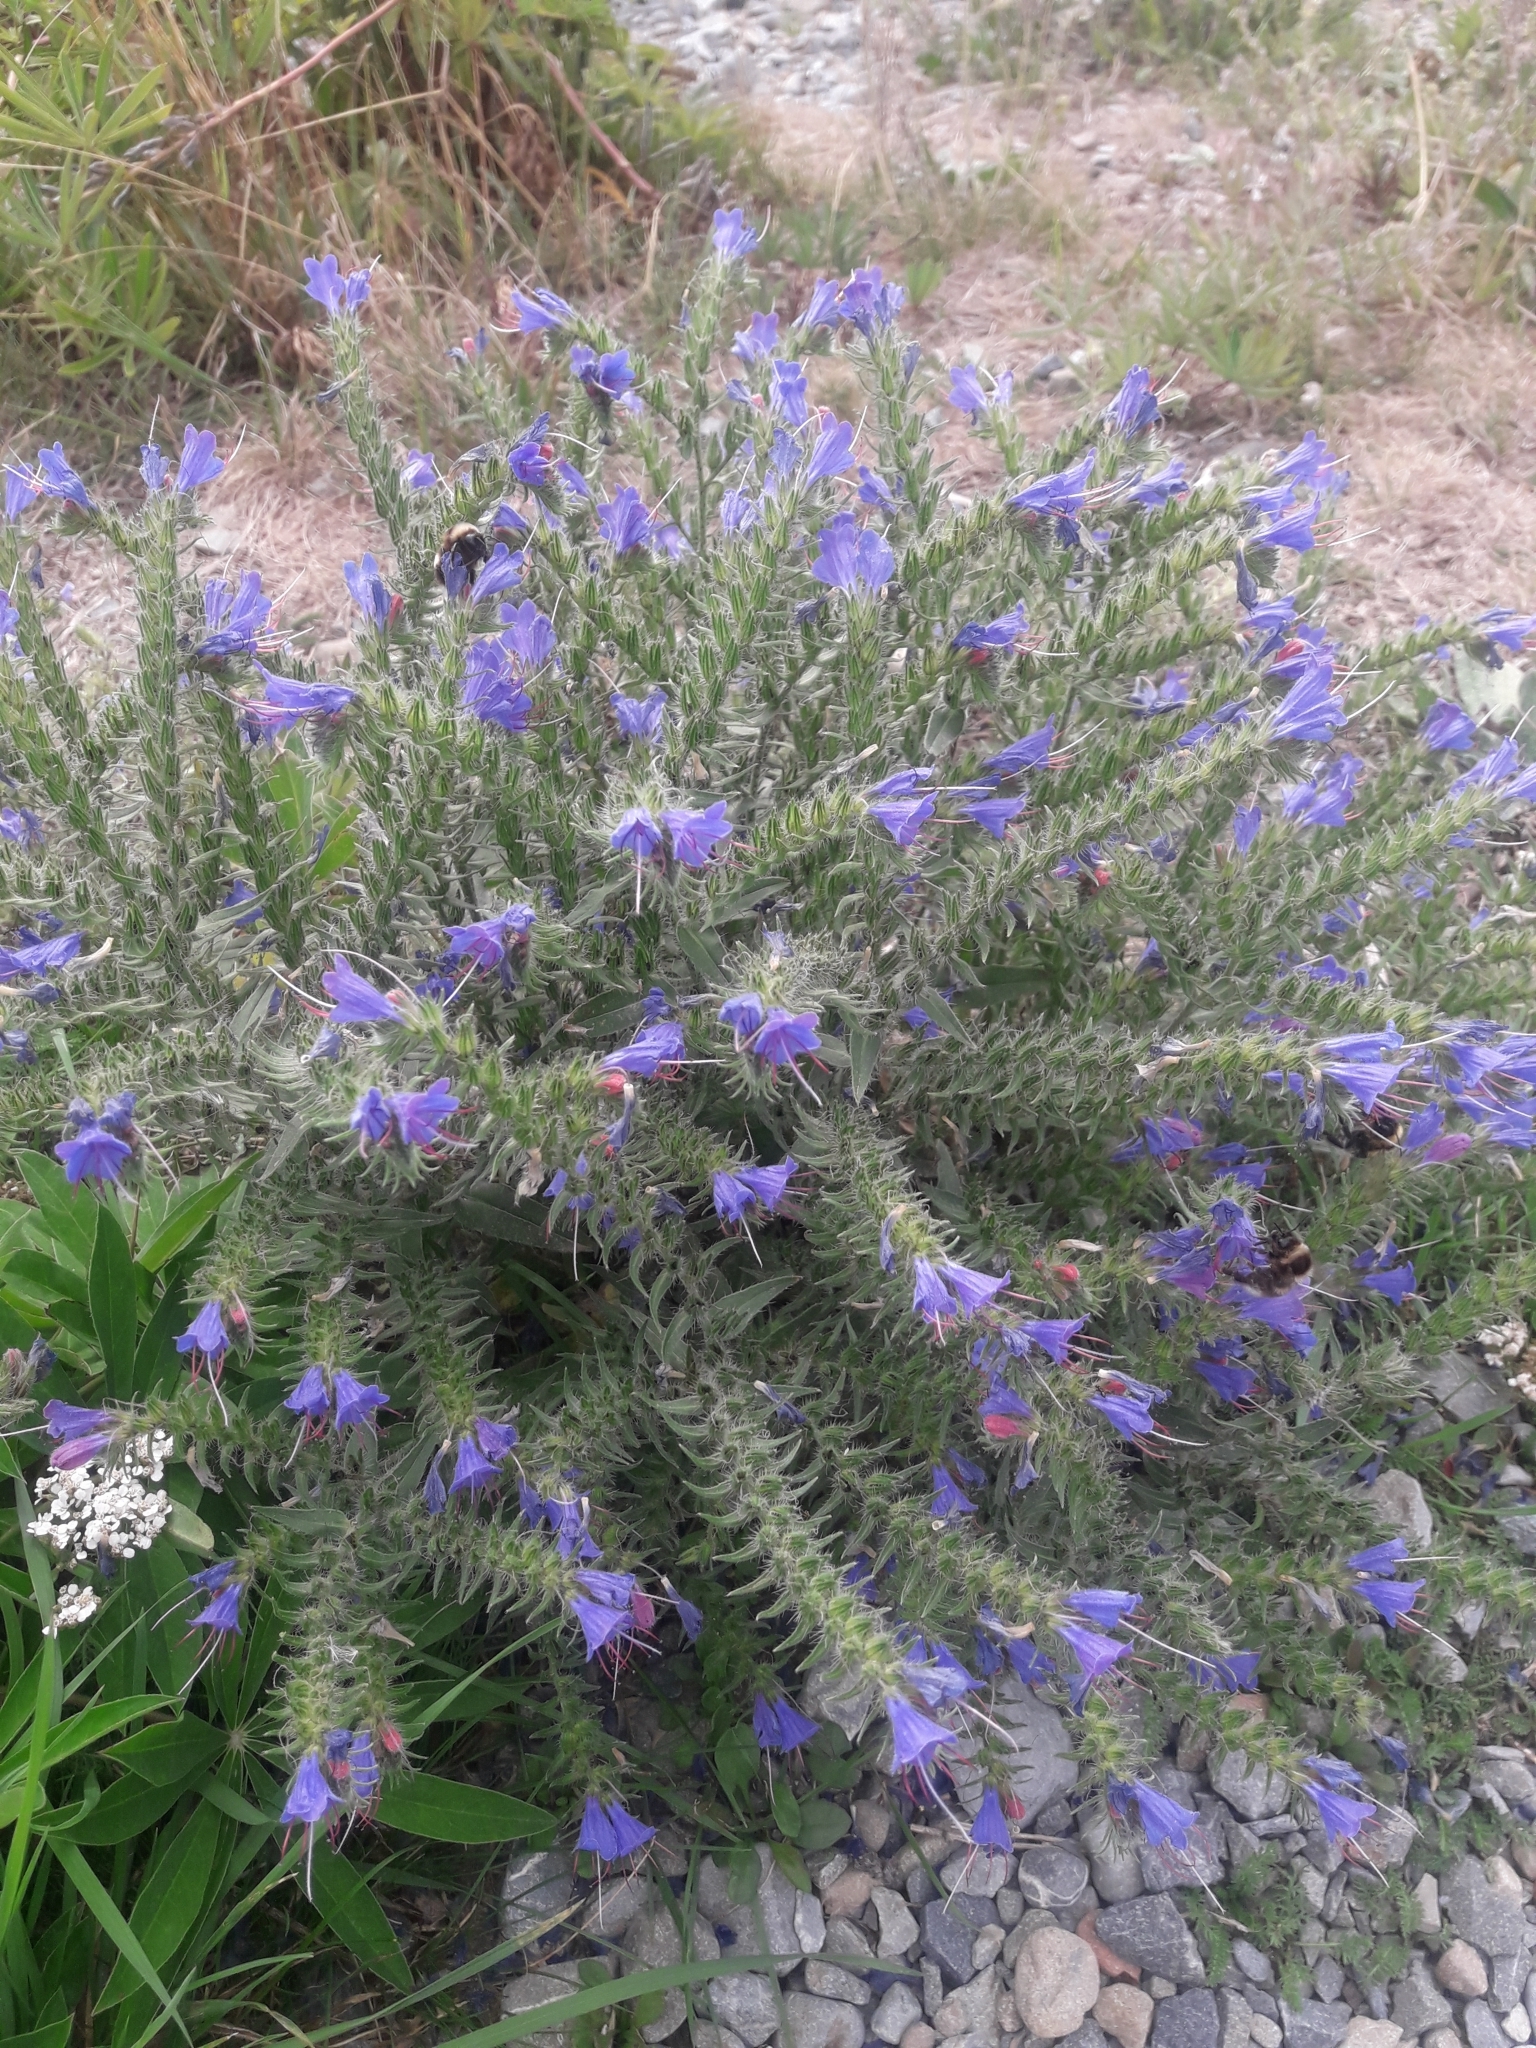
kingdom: Plantae
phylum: Tracheophyta
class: Magnoliopsida
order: Boraginales
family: Boraginaceae
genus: Echium
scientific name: Echium vulgare
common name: Common viper's bugloss
